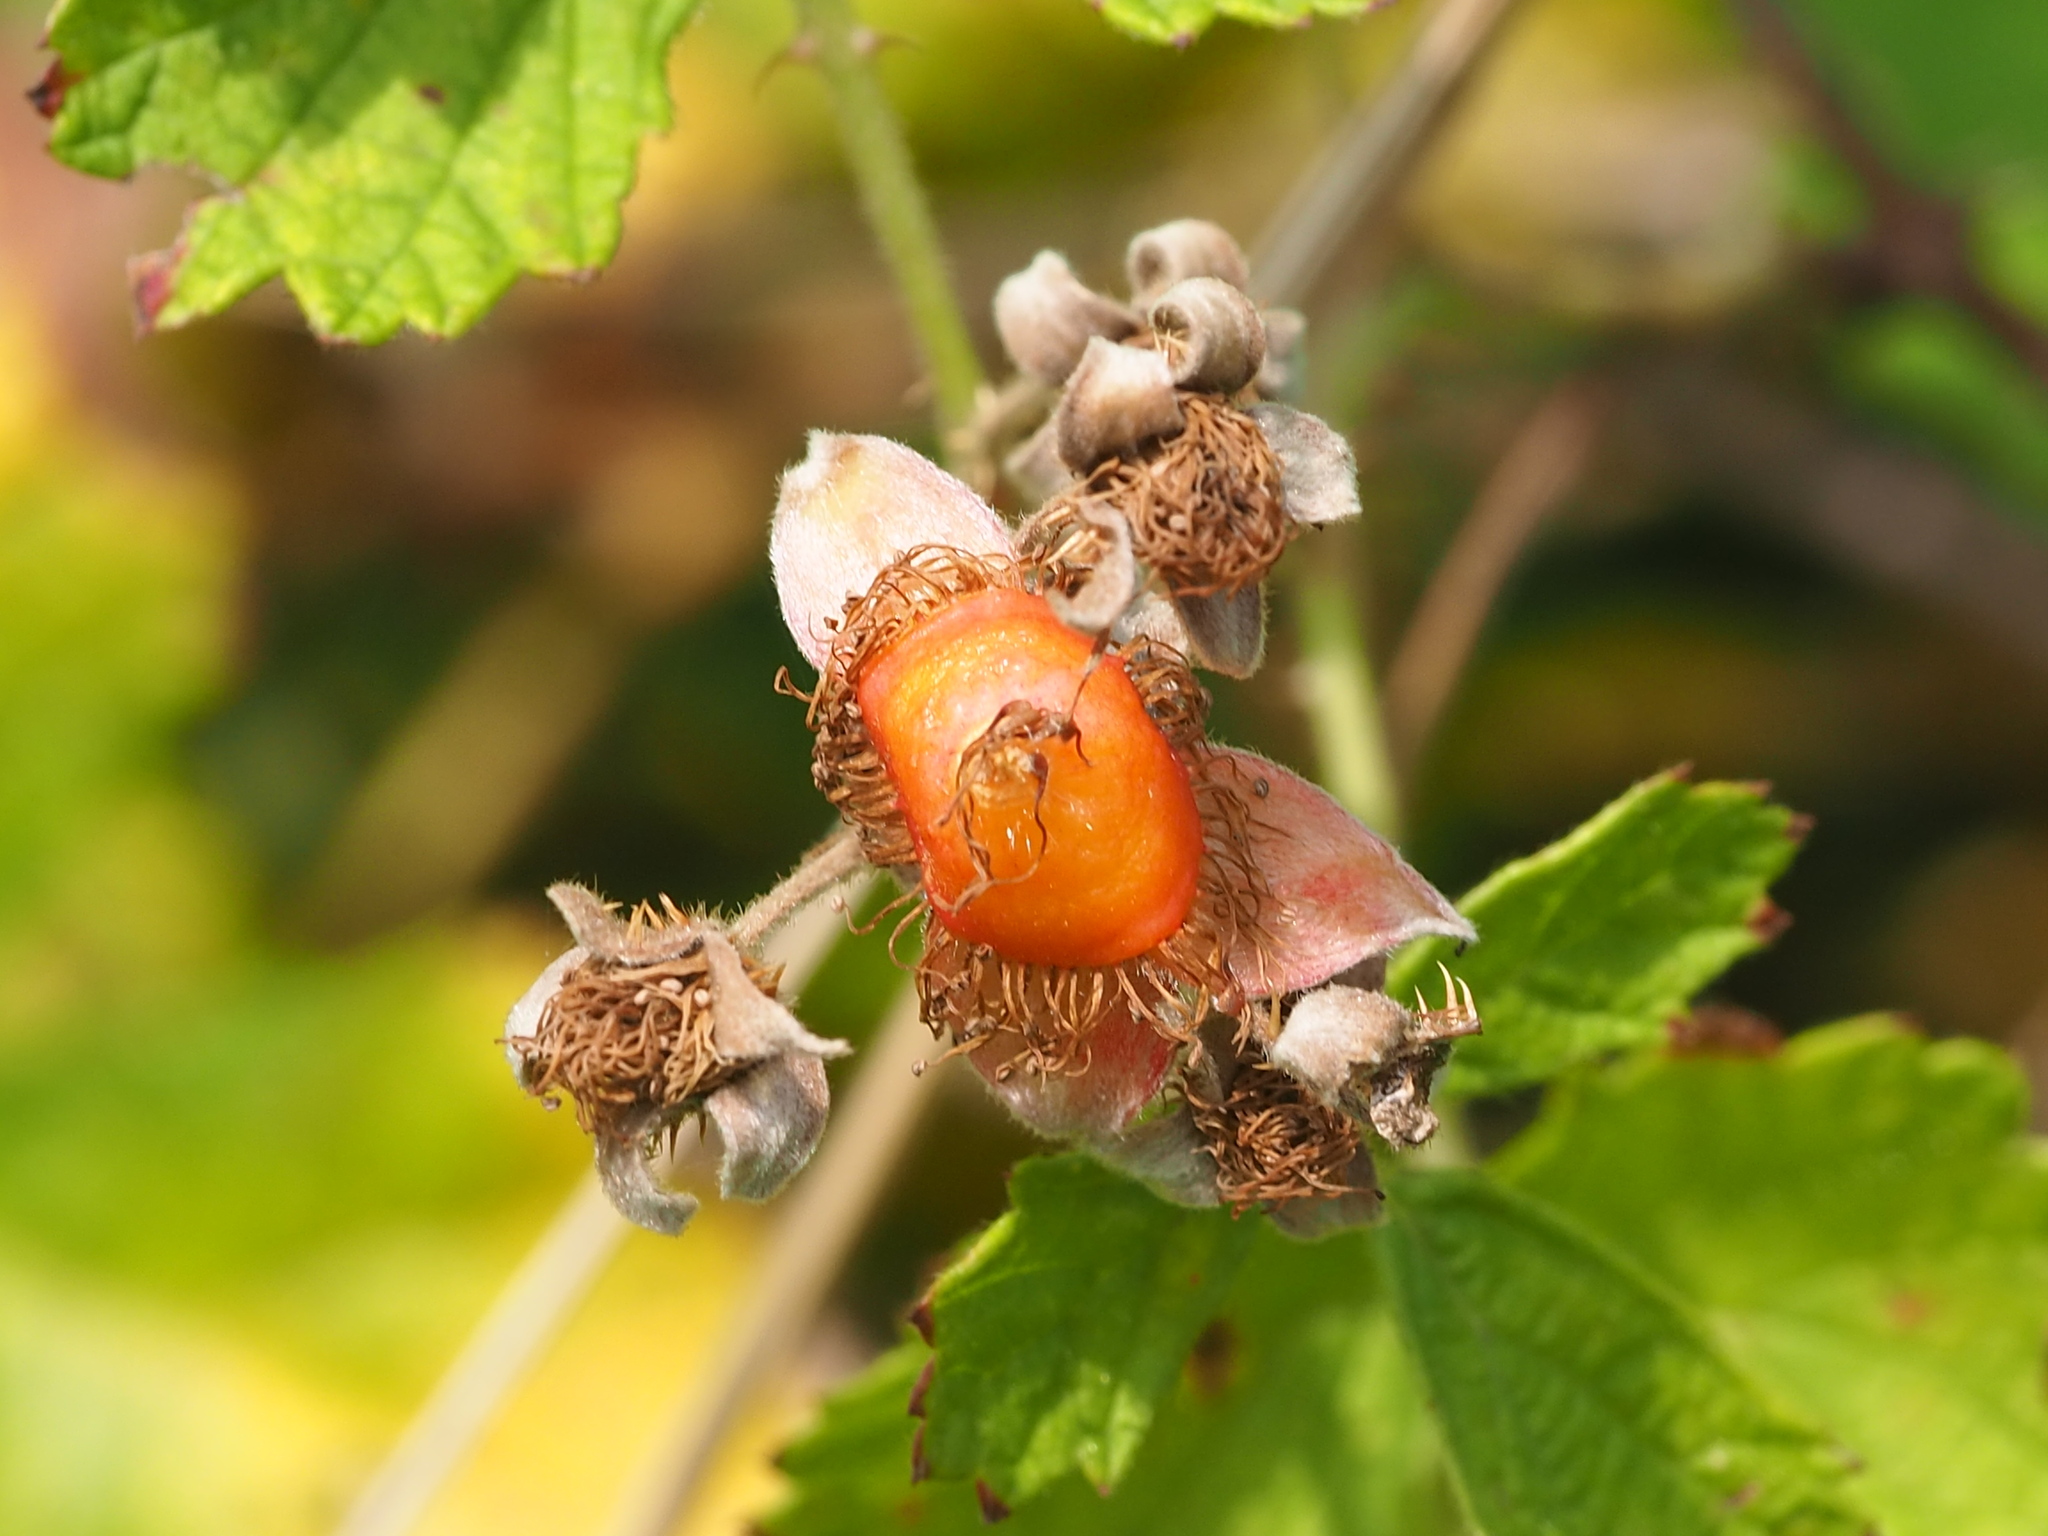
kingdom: Plantae
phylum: Tracheophyta
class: Magnoliopsida
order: Rosales
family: Rosaceae
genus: Rubus
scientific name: Rubus parvifolius
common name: Threeleaf blackberry
